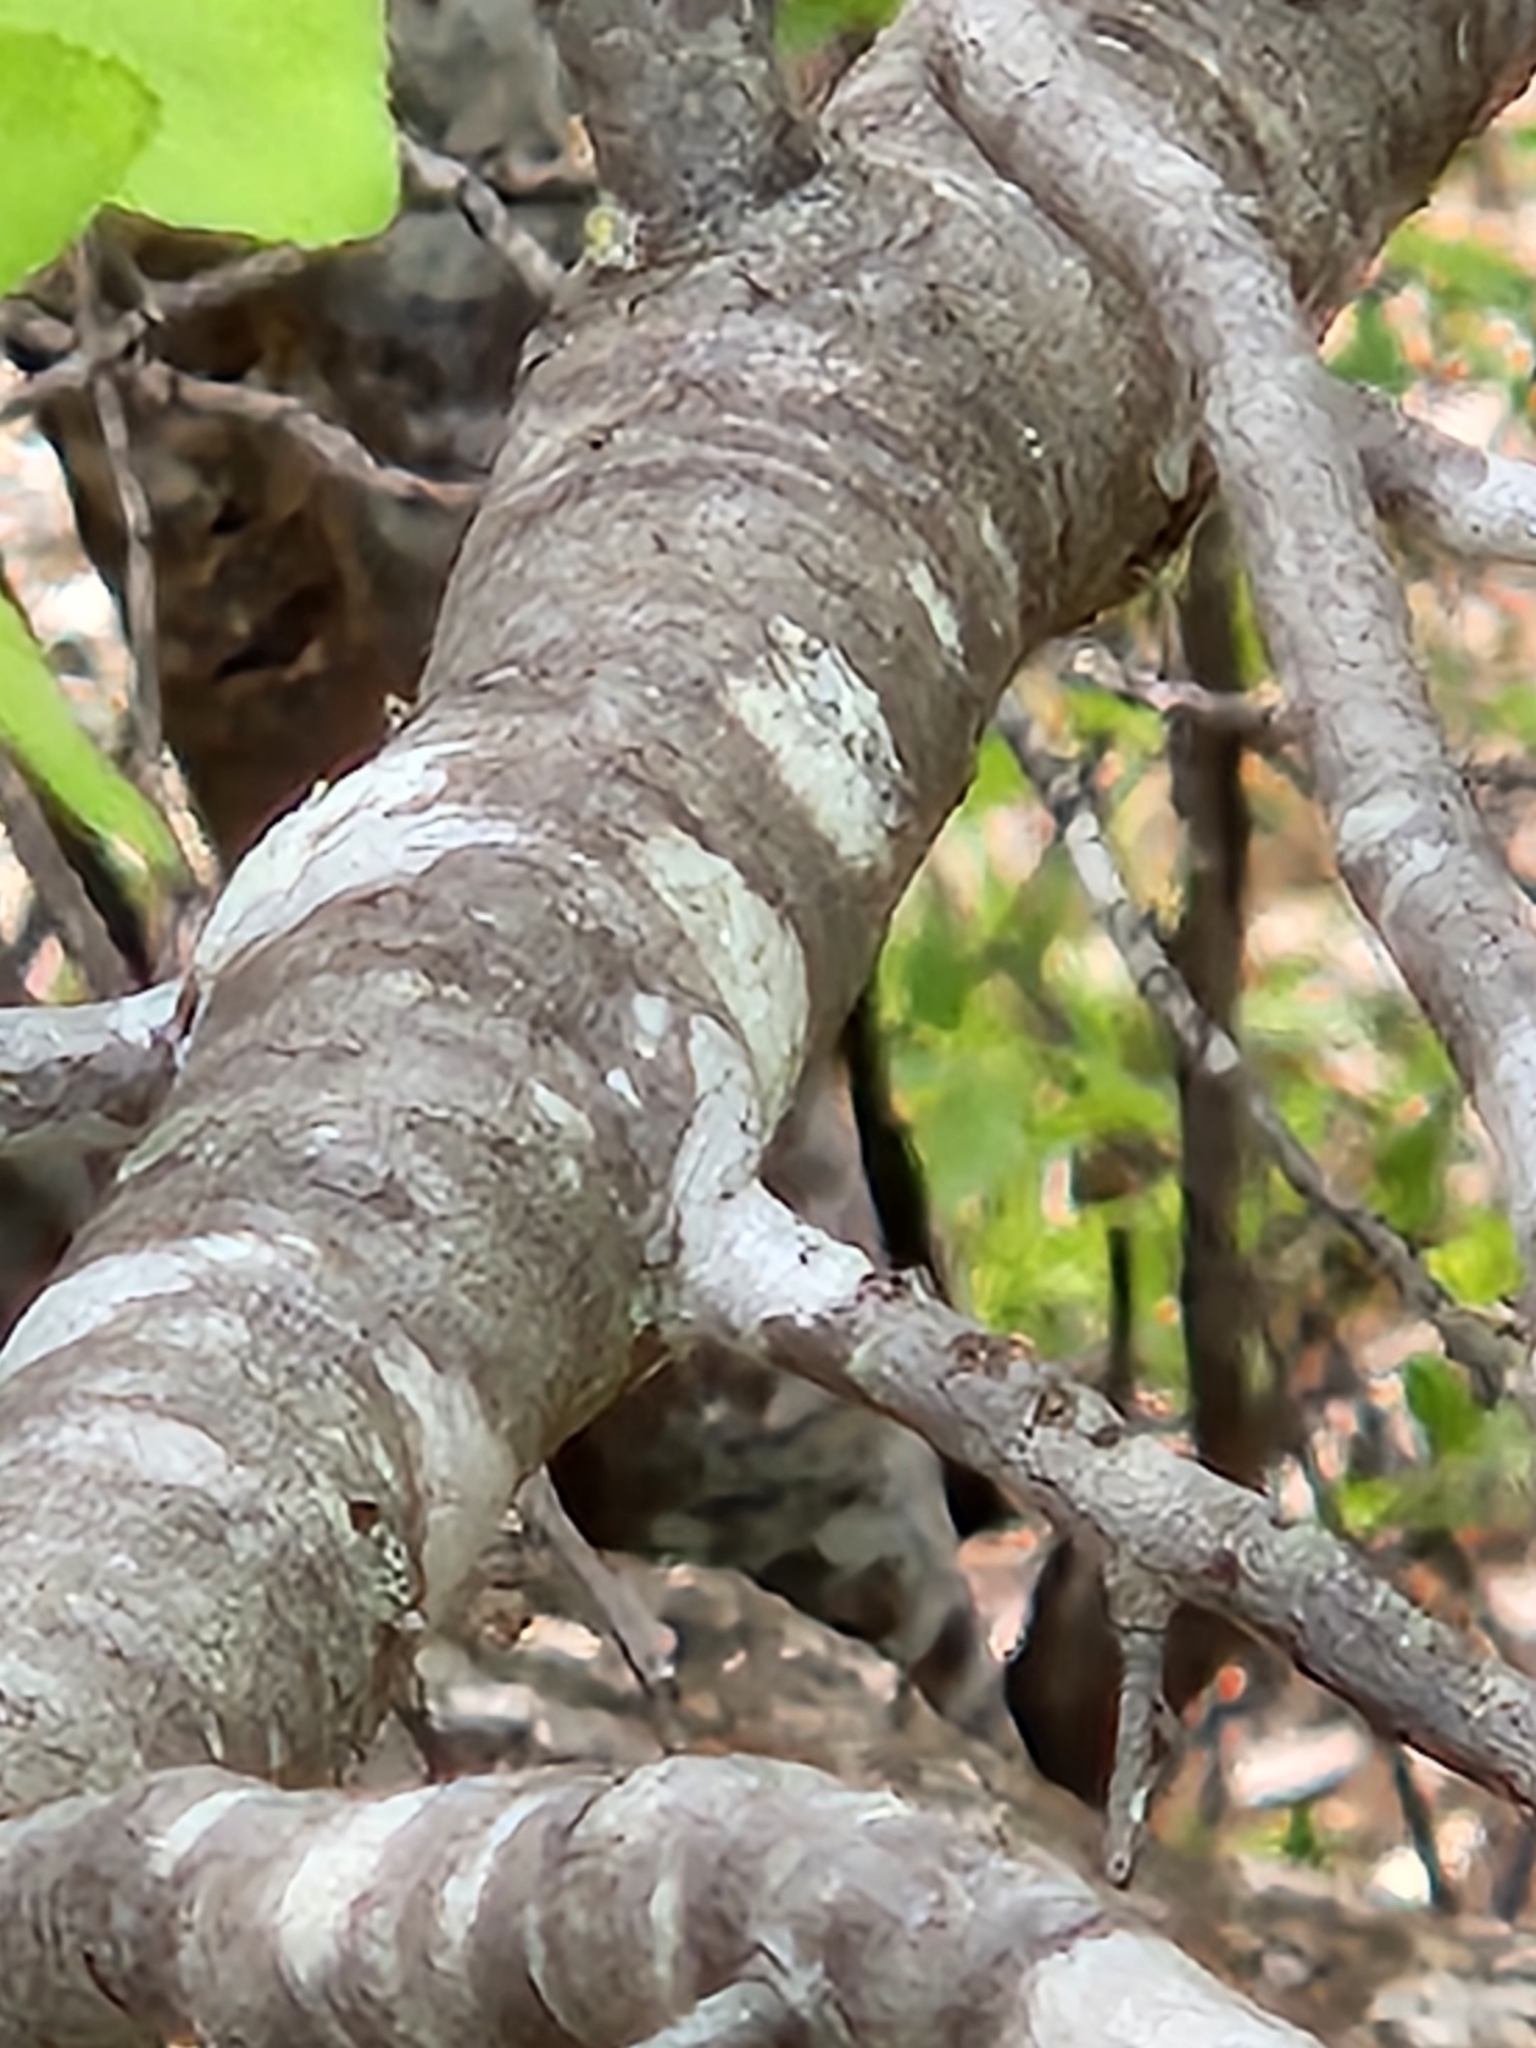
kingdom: Plantae
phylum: Tracheophyta
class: Magnoliopsida
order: Rosales
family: Rosaceae
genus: Prunus
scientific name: Prunus murrayana
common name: Murray plum
